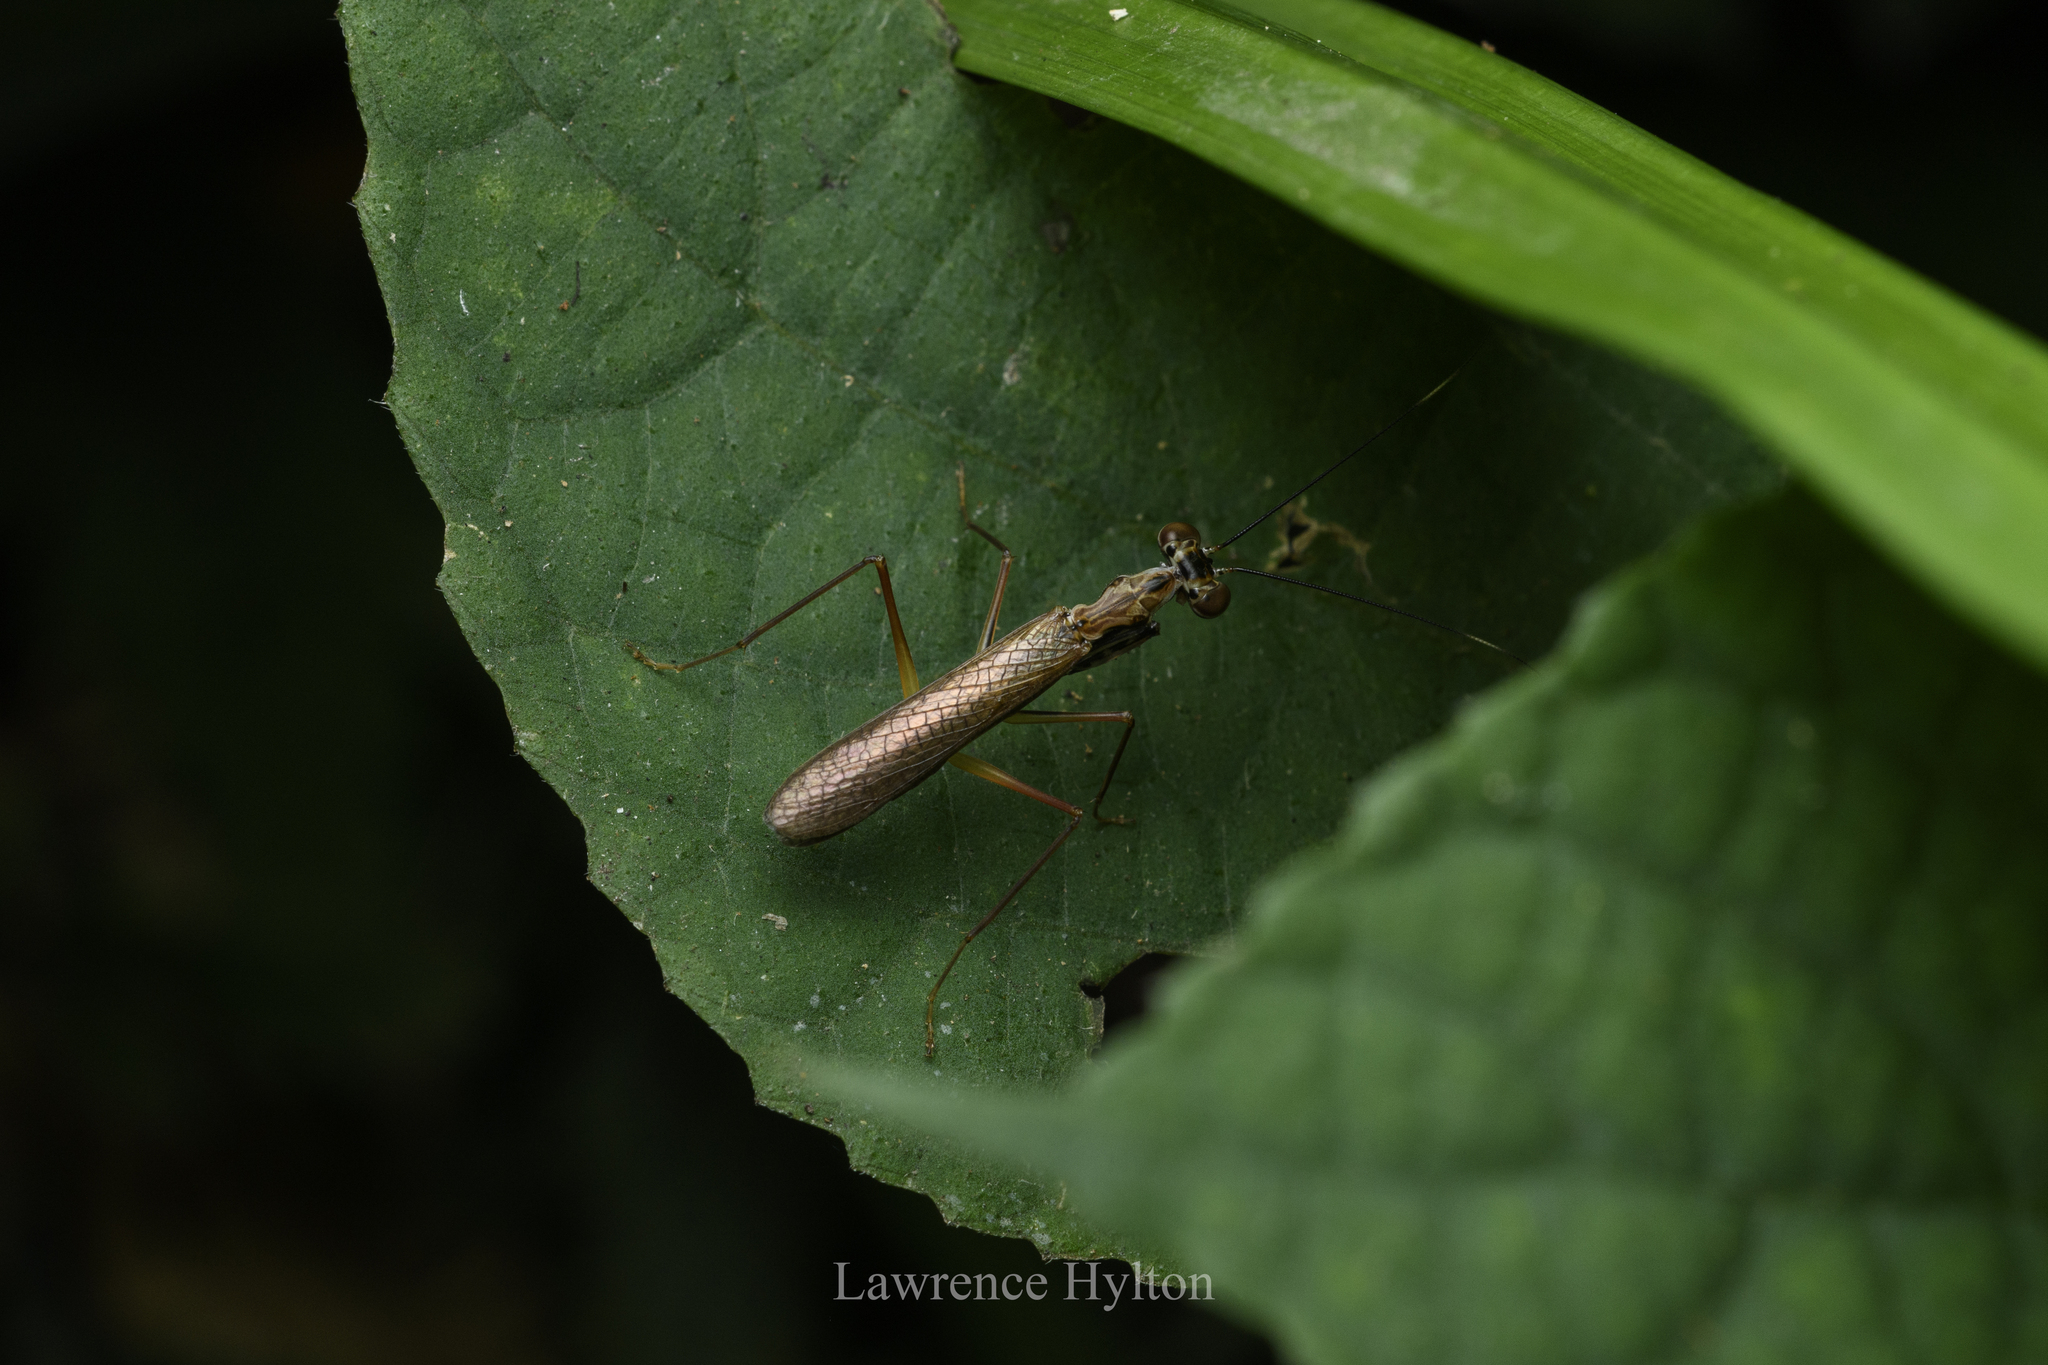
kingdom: Animalia
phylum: Arthropoda
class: Insecta
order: Mantodea
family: Gonypetidae
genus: Spilomantis
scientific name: Spilomantis occipitalis
